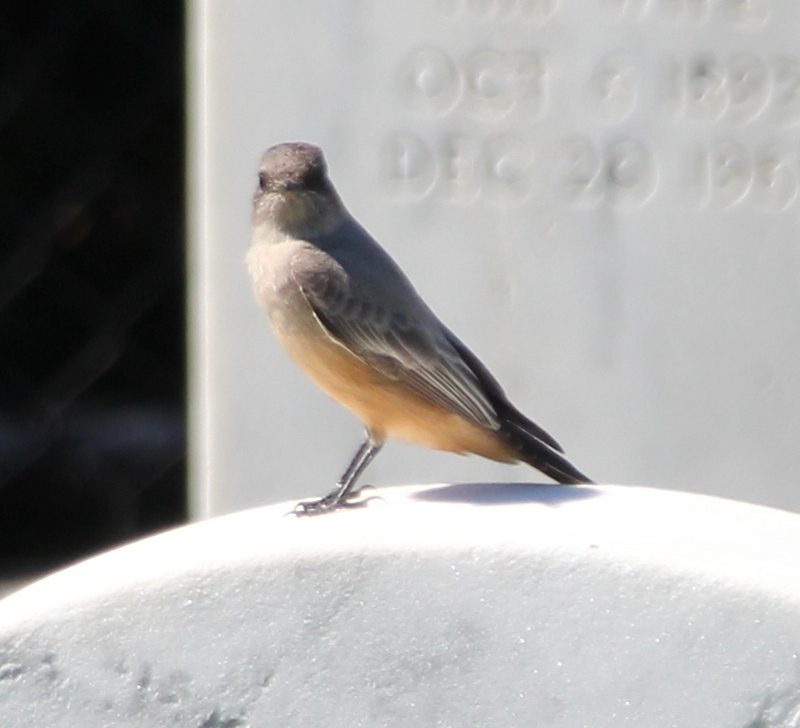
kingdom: Animalia
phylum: Chordata
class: Aves
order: Passeriformes
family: Tyrannidae
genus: Sayornis
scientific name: Sayornis saya
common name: Say's phoebe
